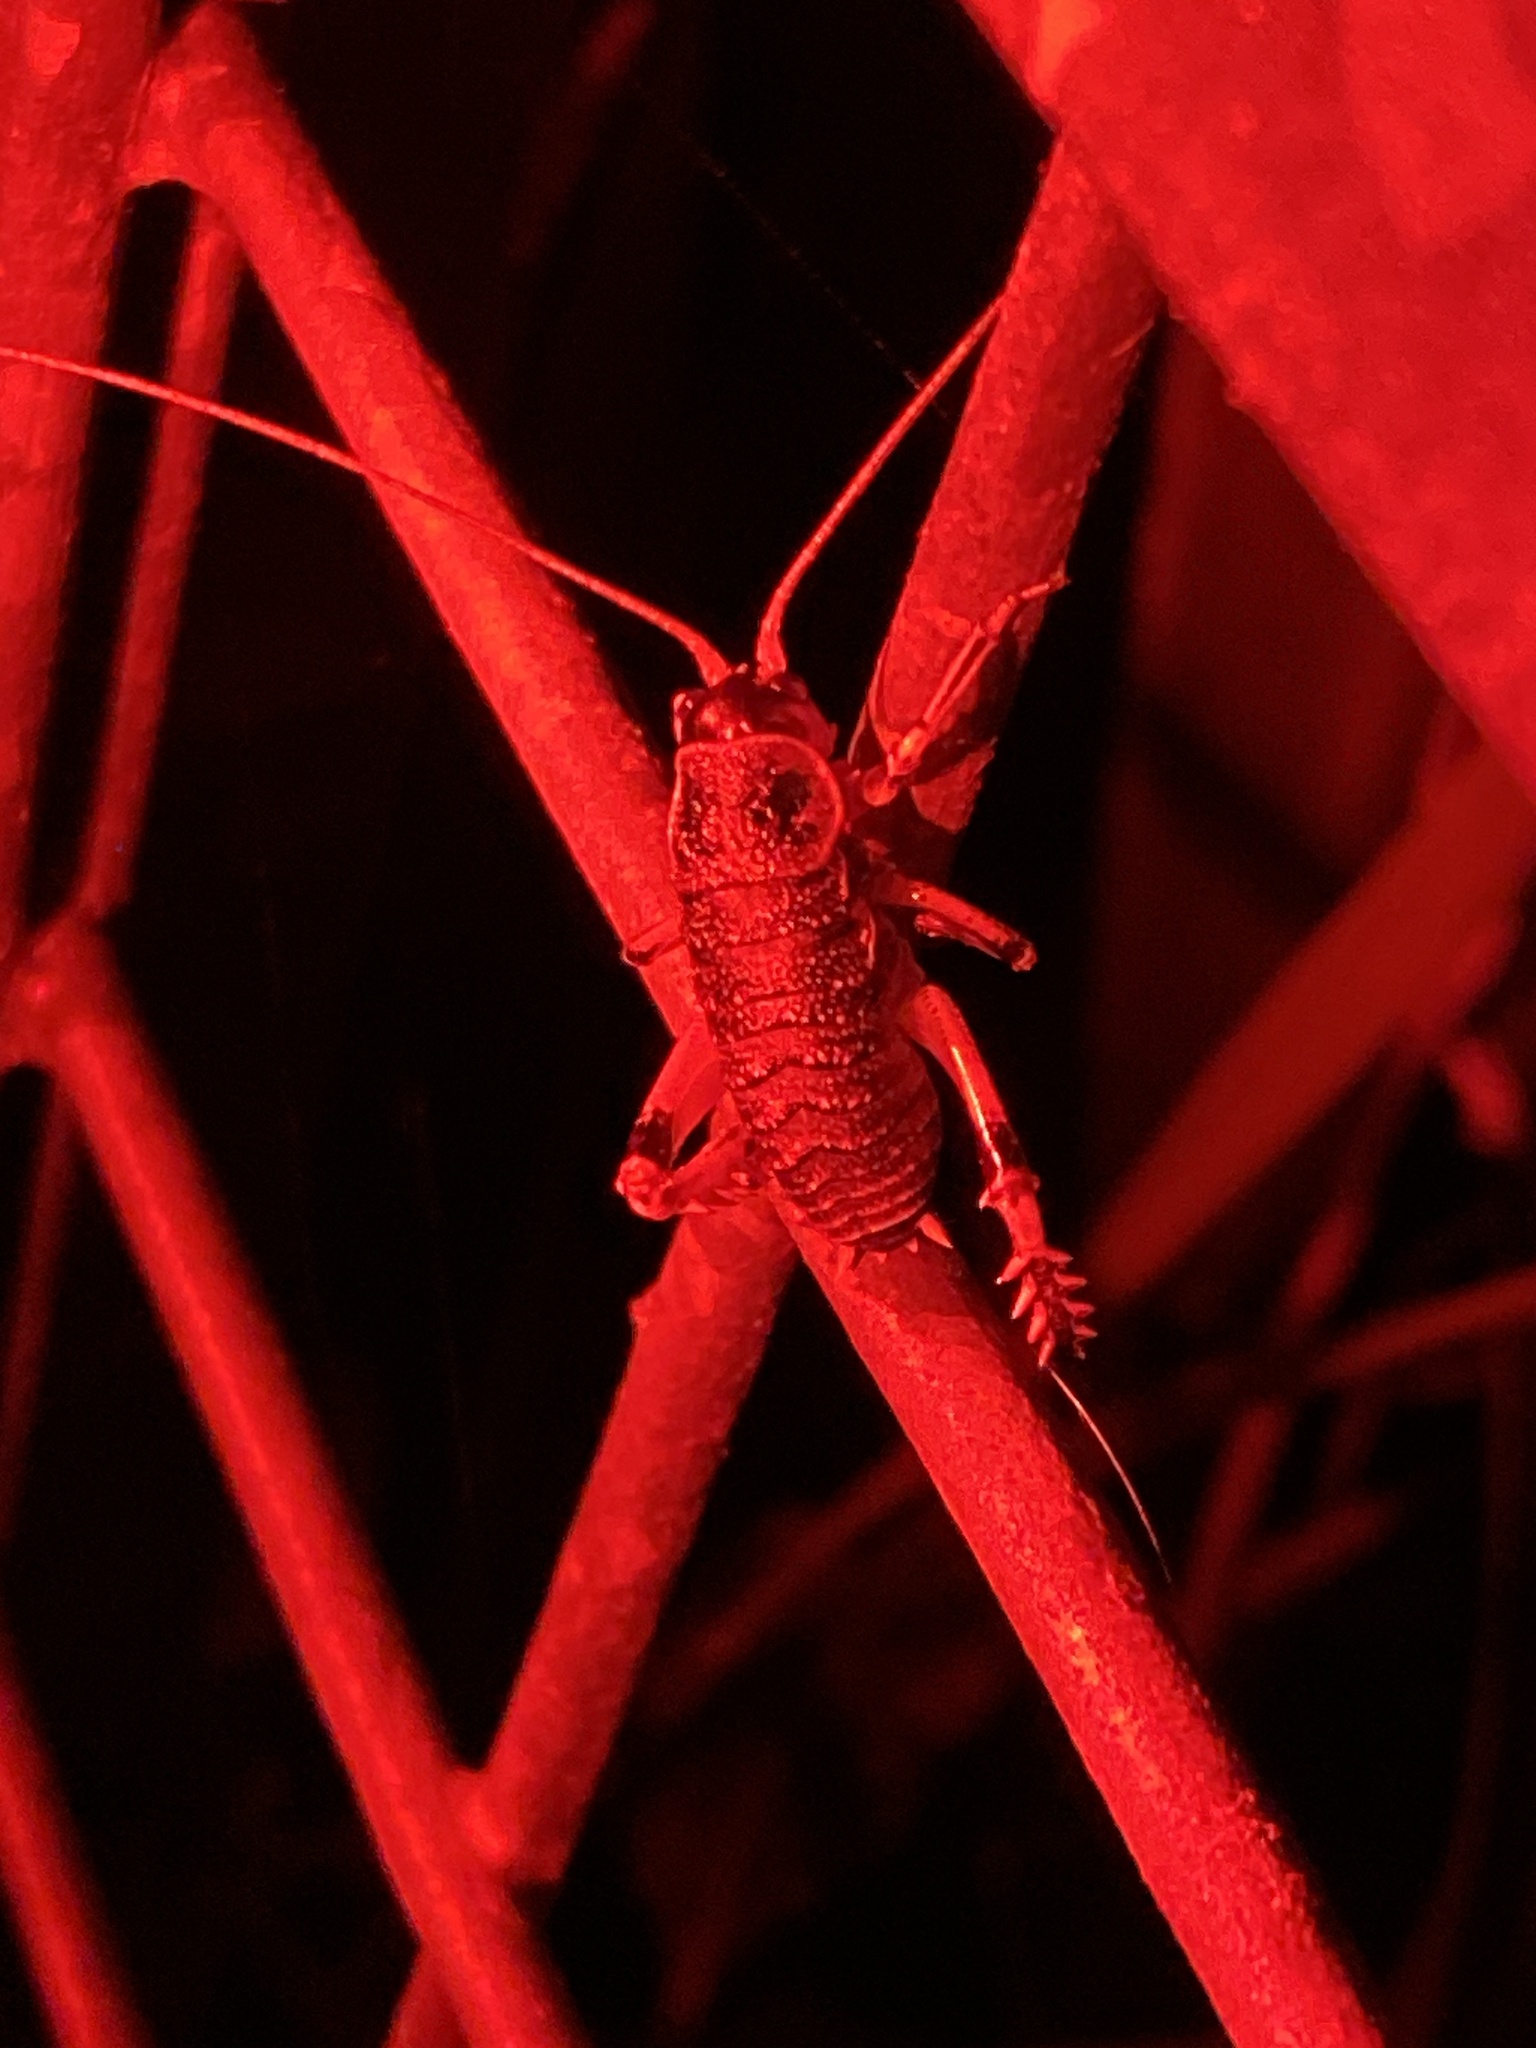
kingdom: Animalia
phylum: Arthropoda
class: Insecta
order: Orthoptera
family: Anostostomatidae
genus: Deinacrida
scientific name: Deinacrida rugosa
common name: Stephens island weta
